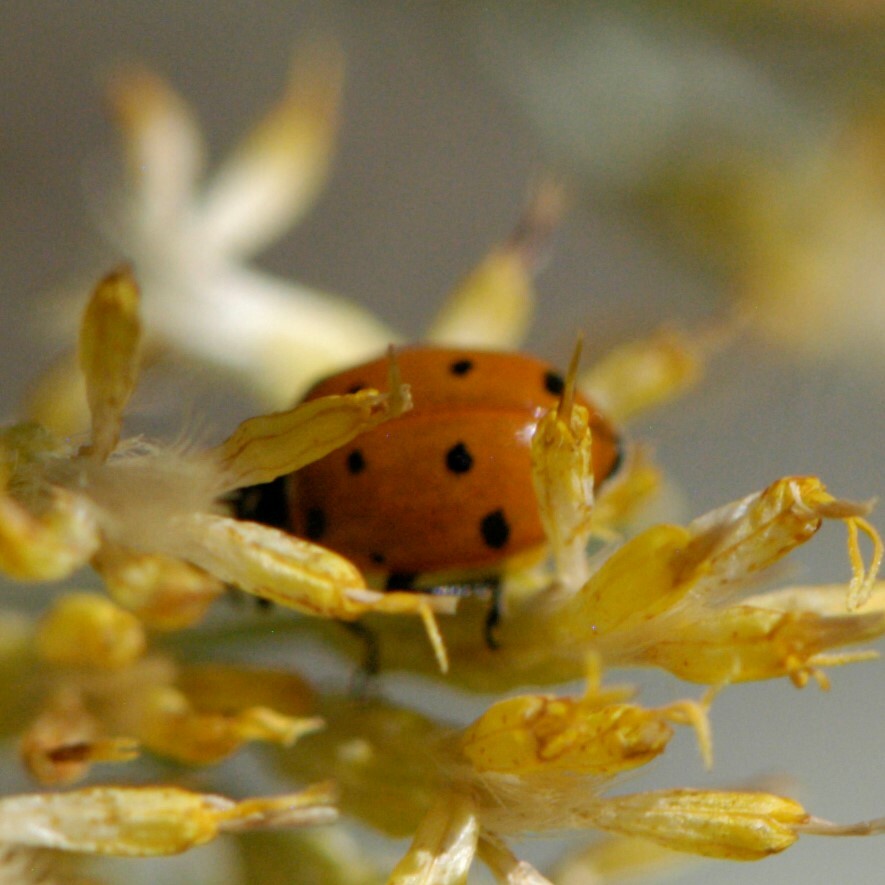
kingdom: Animalia
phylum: Arthropoda
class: Insecta
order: Coleoptera
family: Coccinellidae
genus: Hippodamia
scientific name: Hippodamia convergens
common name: Convergent lady beetle
